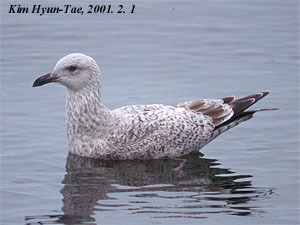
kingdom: Animalia
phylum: Chordata
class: Aves
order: Charadriiformes
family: Laridae
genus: Larus
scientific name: Larus vegae
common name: Vega gull
